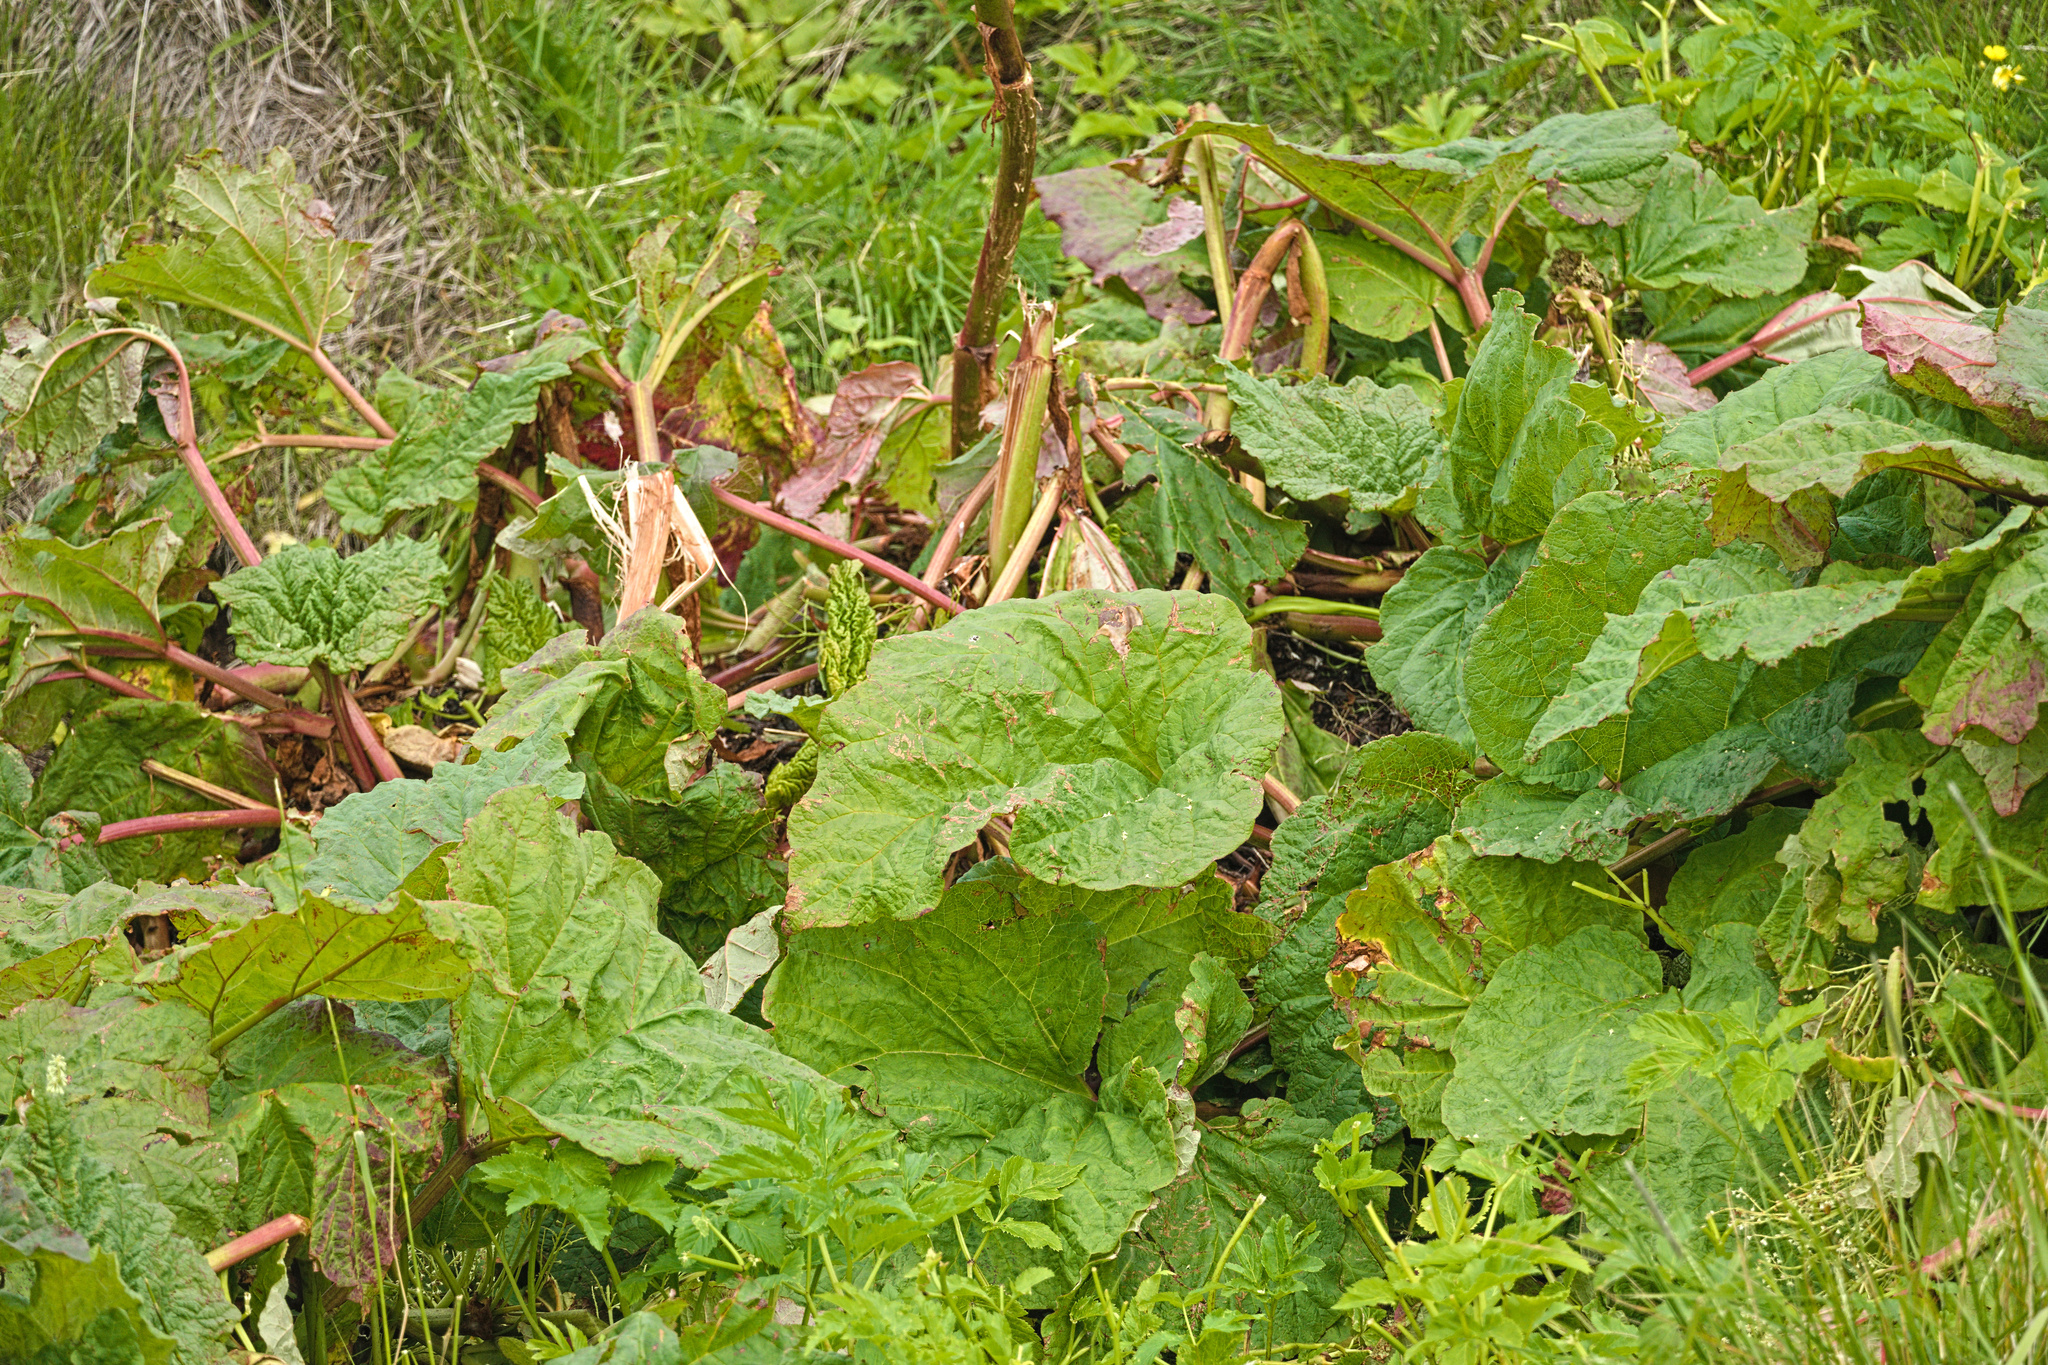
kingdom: Plantae
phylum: Tracheophyta
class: Magnoliopsida
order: Caryophyllales
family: Polygonaceae
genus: Rheum
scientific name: Rheum rhabarbarum
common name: Garden rhubarb
